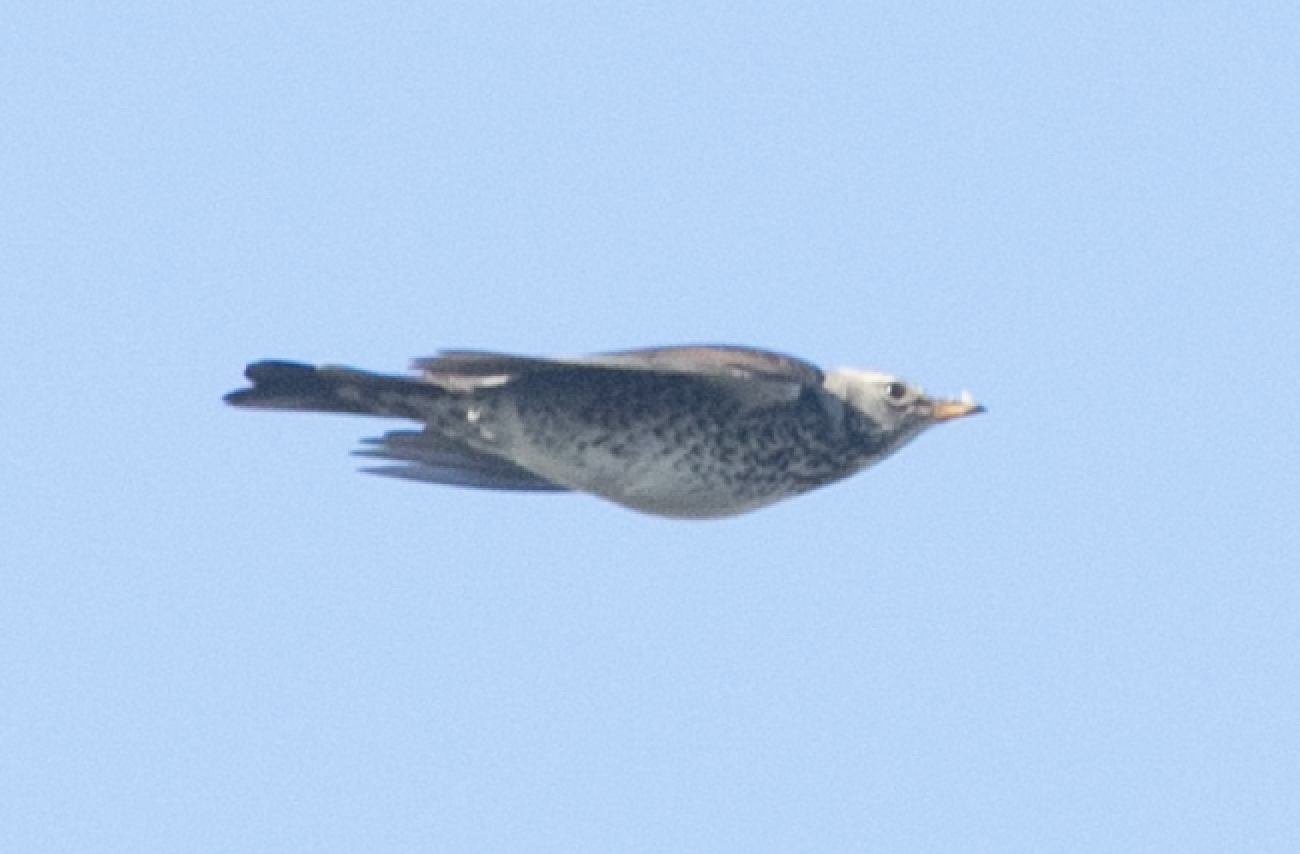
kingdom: Animalia
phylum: Chordata
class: Aves
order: Passeriformes
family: Turdidae
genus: Turdus
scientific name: Turdus pilaris
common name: Fieldfare
